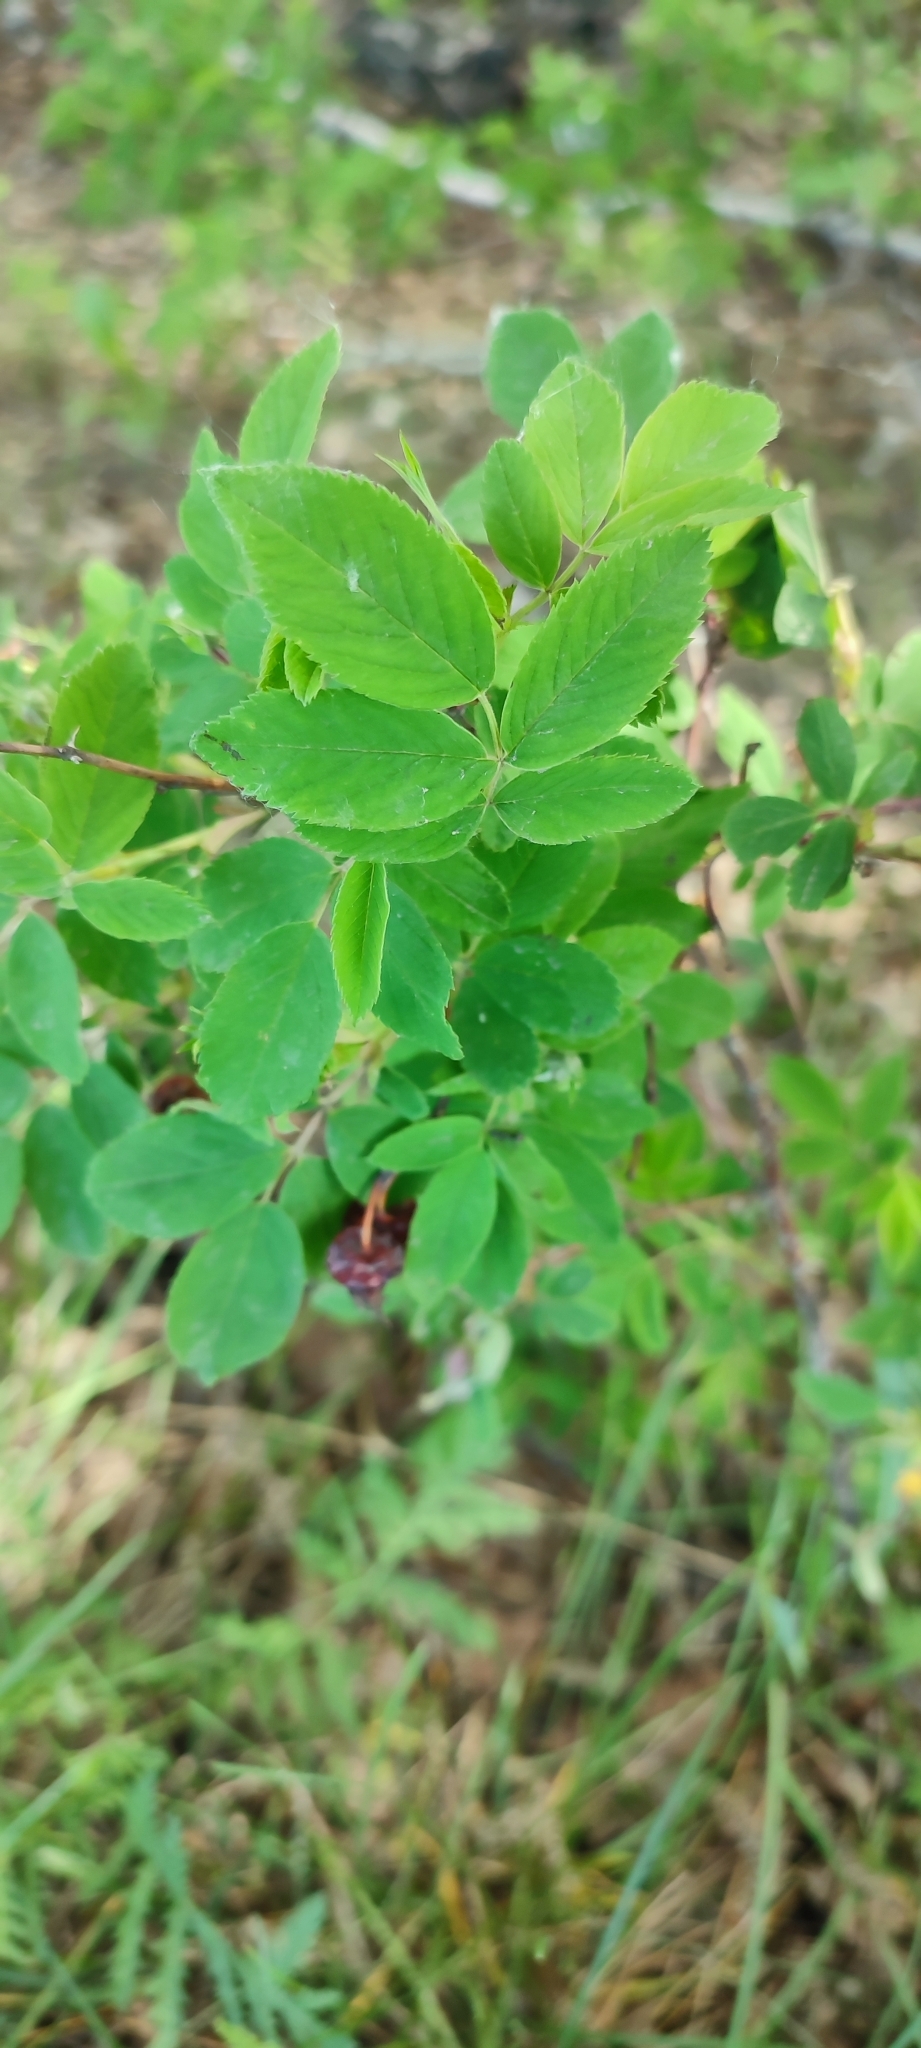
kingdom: Plantae
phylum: Tracheophyta
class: Magnoliopsida
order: Rosales
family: Rosaceae
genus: Rosa
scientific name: Rosa majalis
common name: Cinnamon rose
